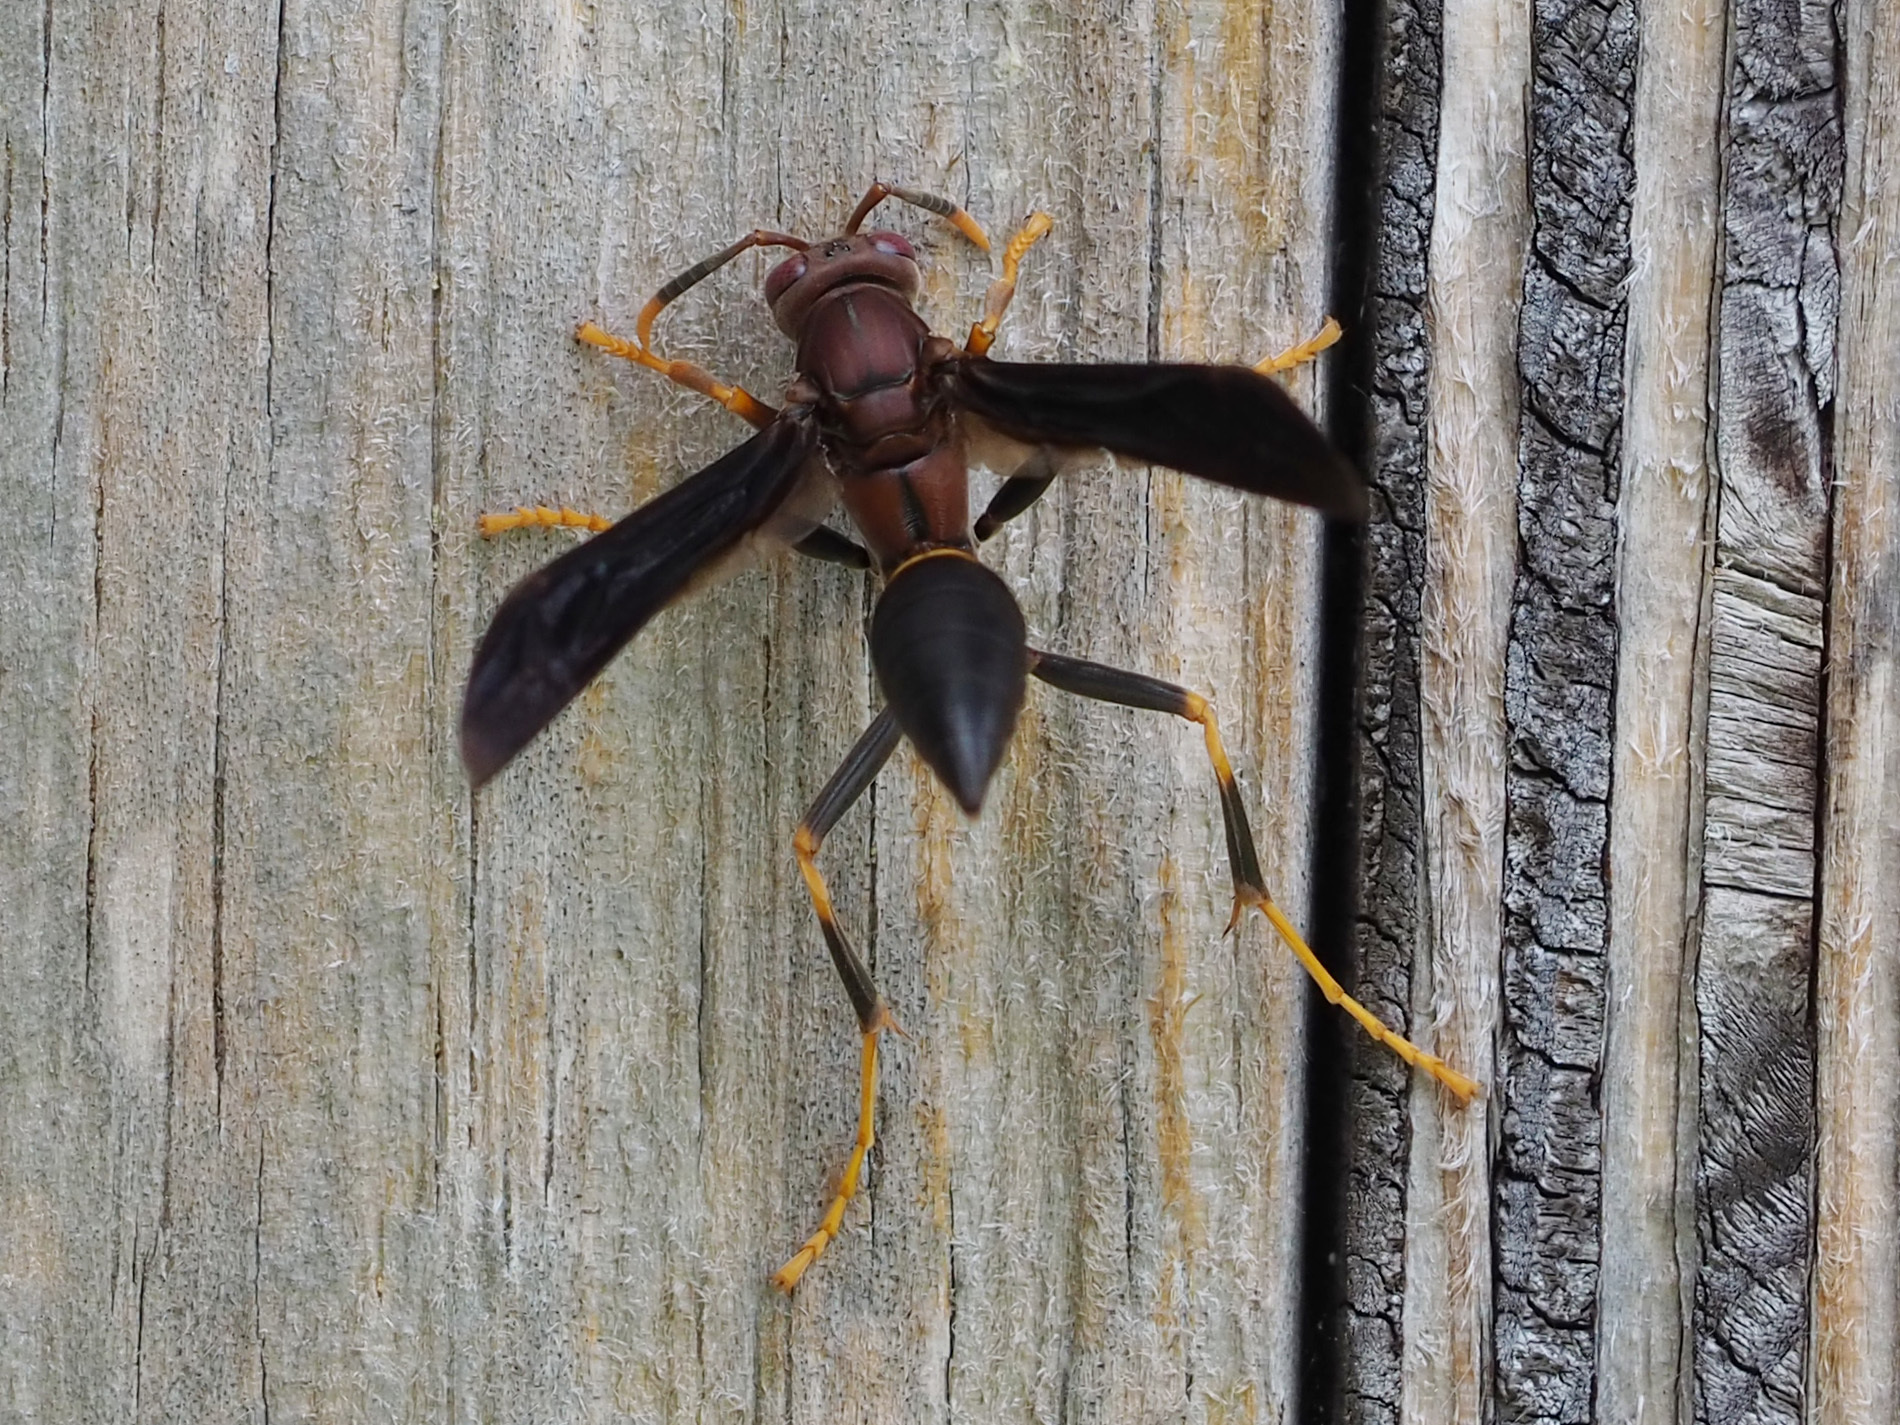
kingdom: Animalia
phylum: Arthropoda
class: Insecta
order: Hymenoptera
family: Eumenidae
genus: Polistes
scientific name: Polistes annularis
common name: Ringed paper wasp
